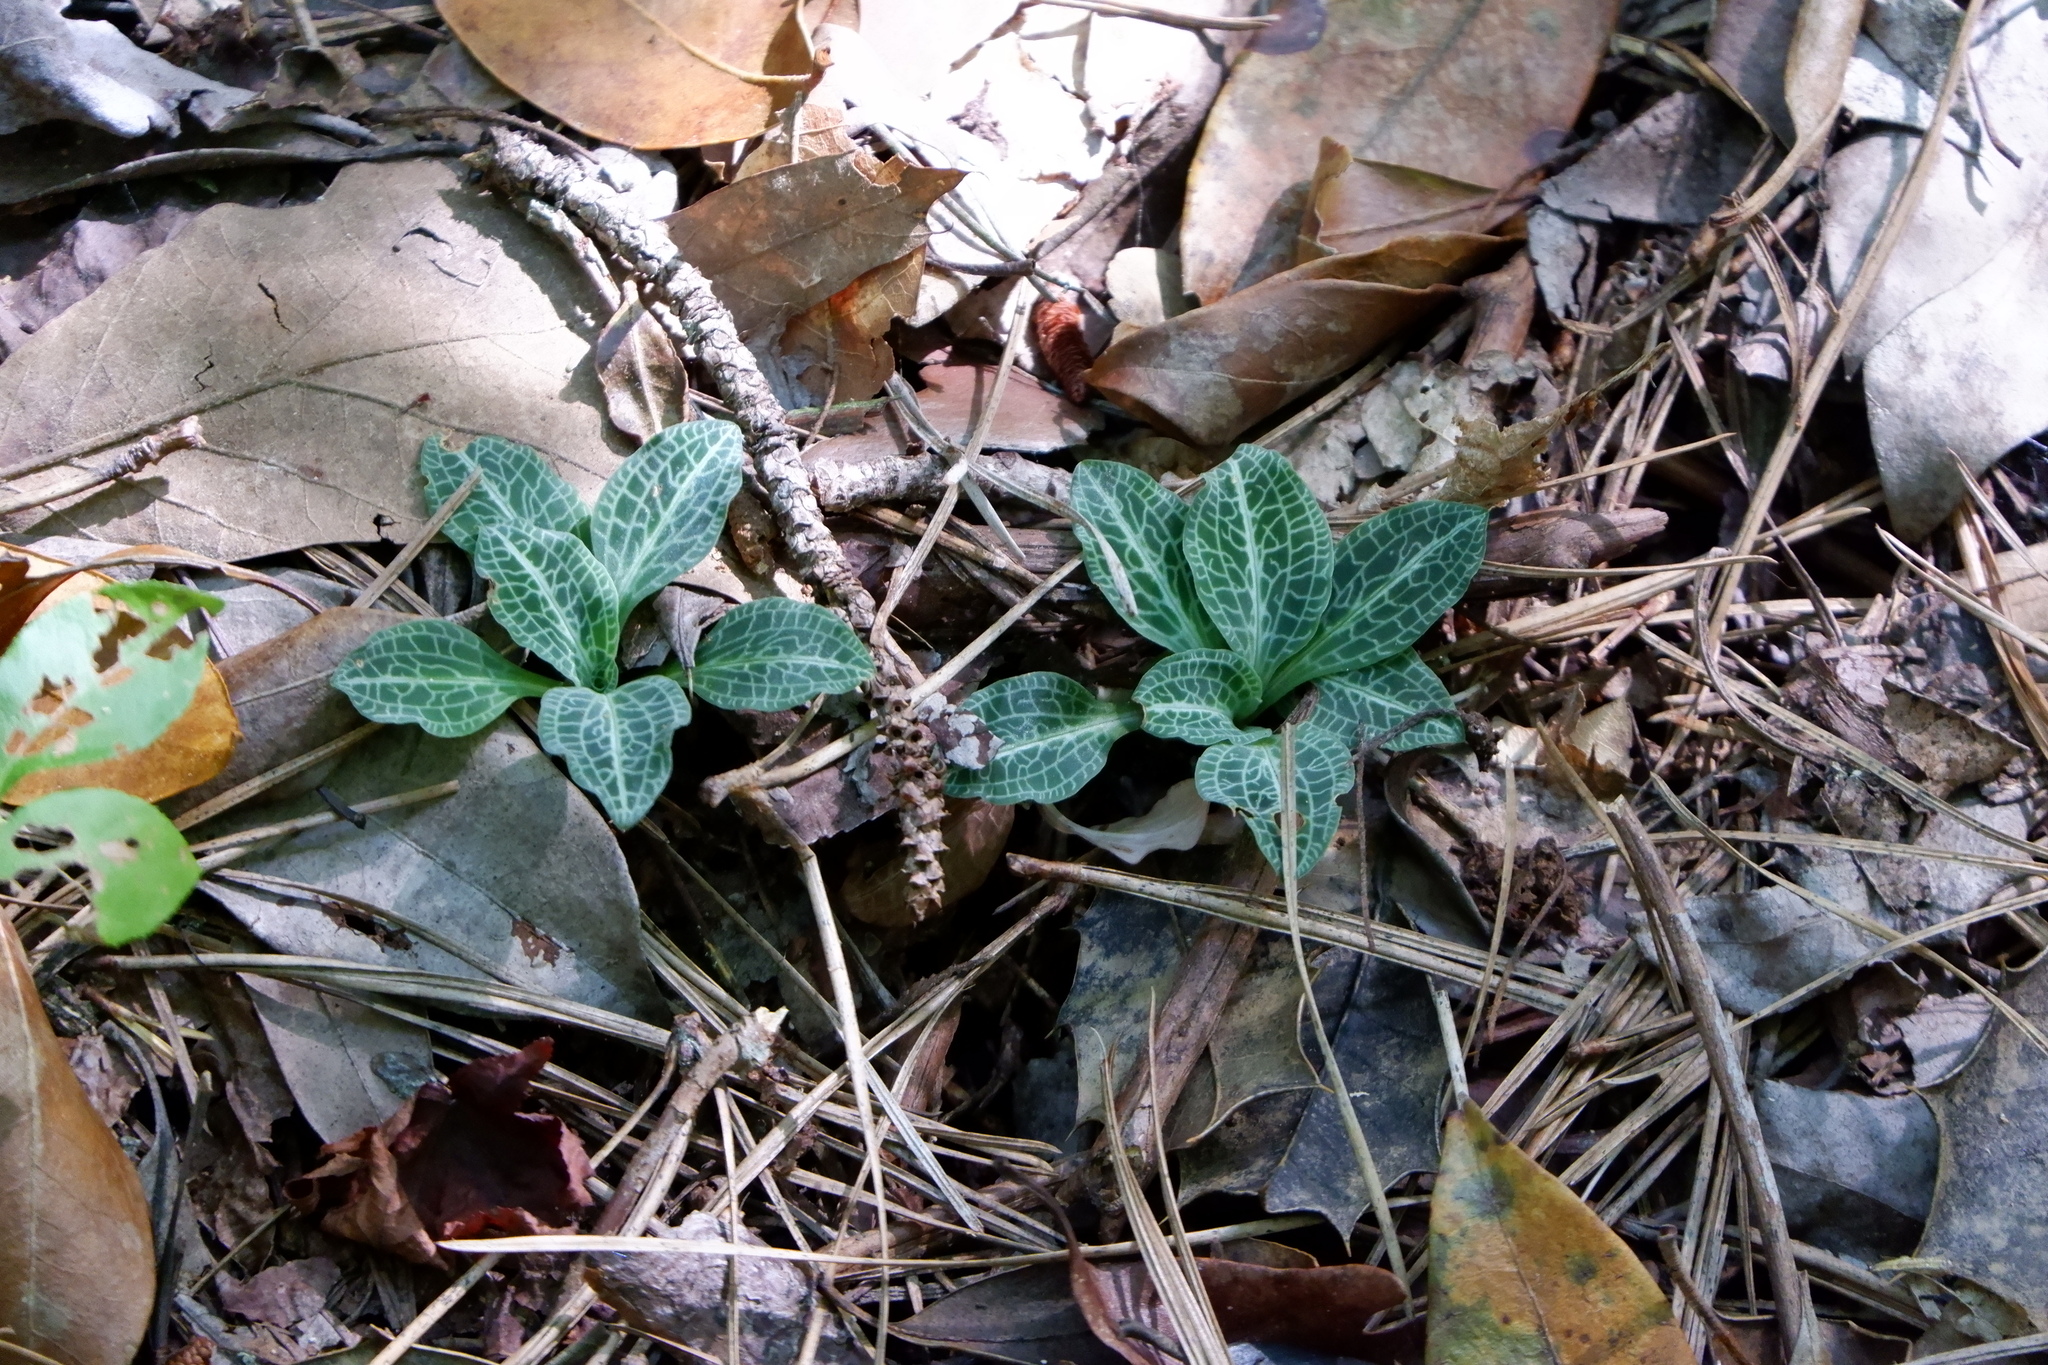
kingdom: Plantae
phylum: Tracheophyta
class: Liliopsida
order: Asparagales
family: Orchidaceae
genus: Goodyera
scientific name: Goodyera pubescens
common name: Downy rattlesnake-plantain
